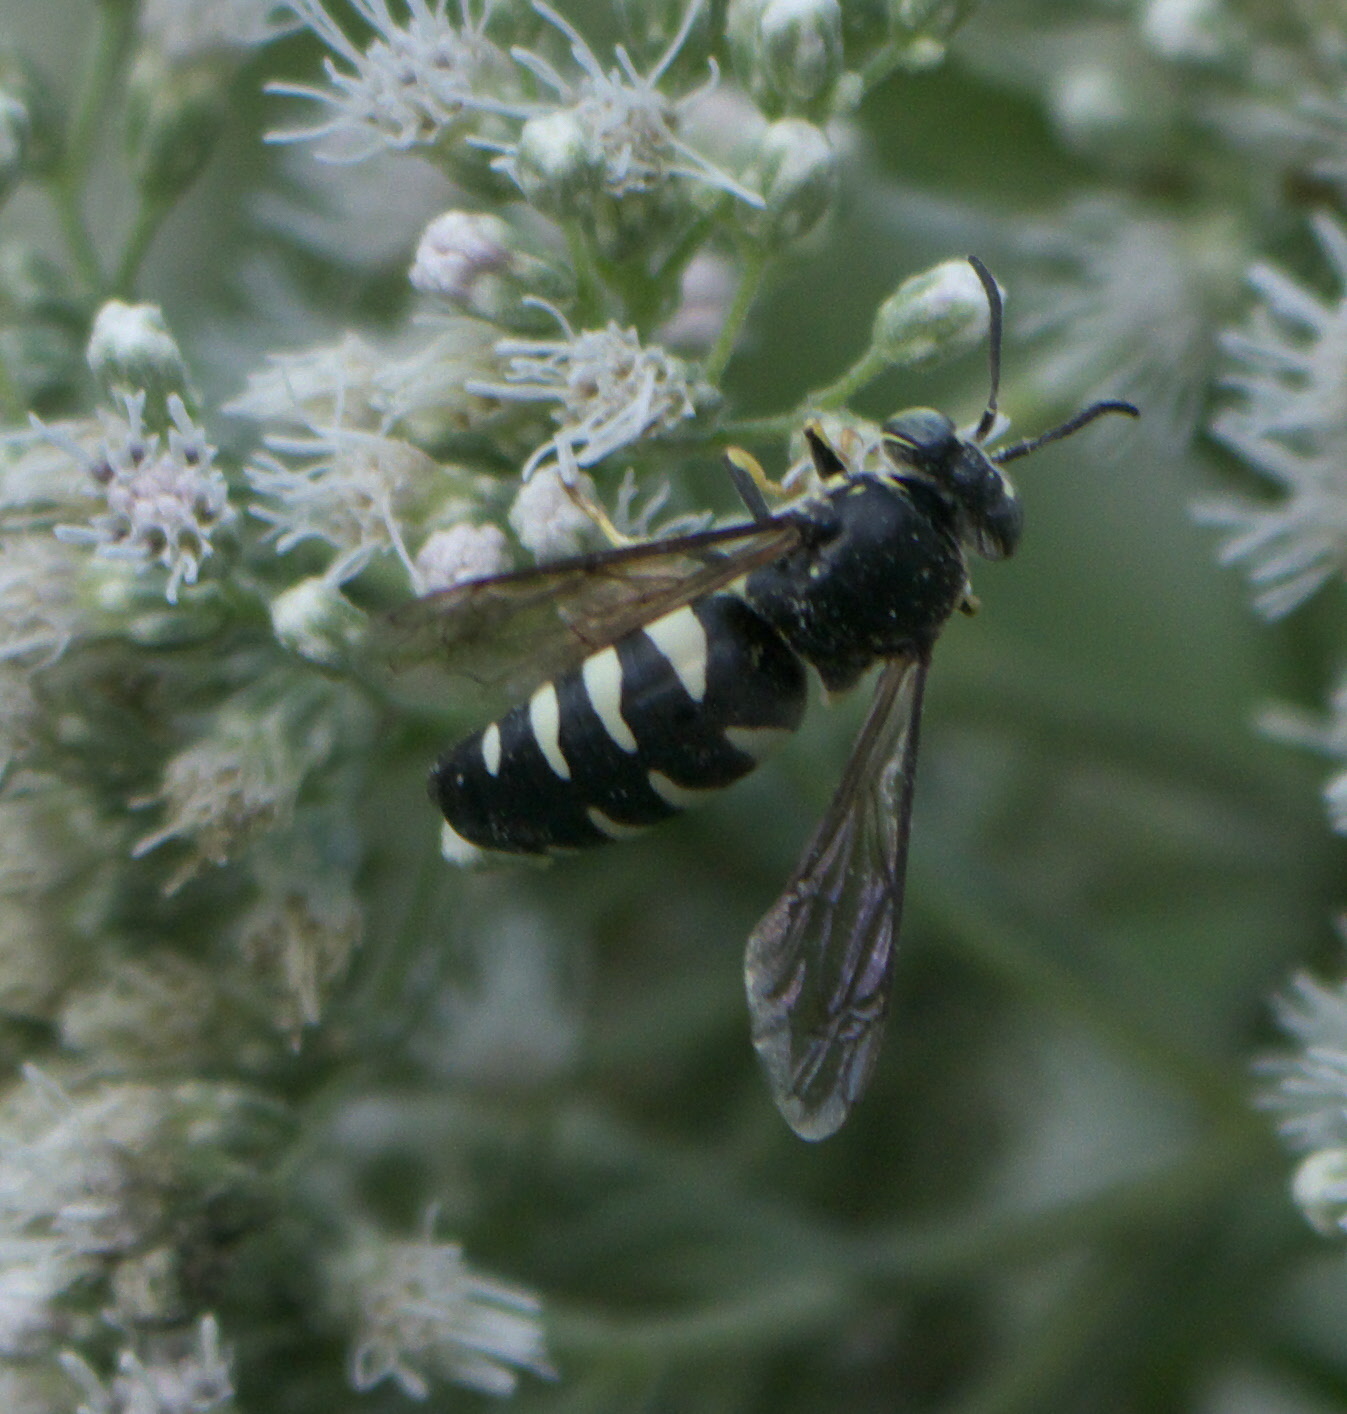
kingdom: Animalia
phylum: Arthropoda
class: Insecta
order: Hymenoptera
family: Crabronidae
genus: Bicyrtes
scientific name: Bicyrtes quadrifasciatus
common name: Four-banded stink bug hunter wasp
